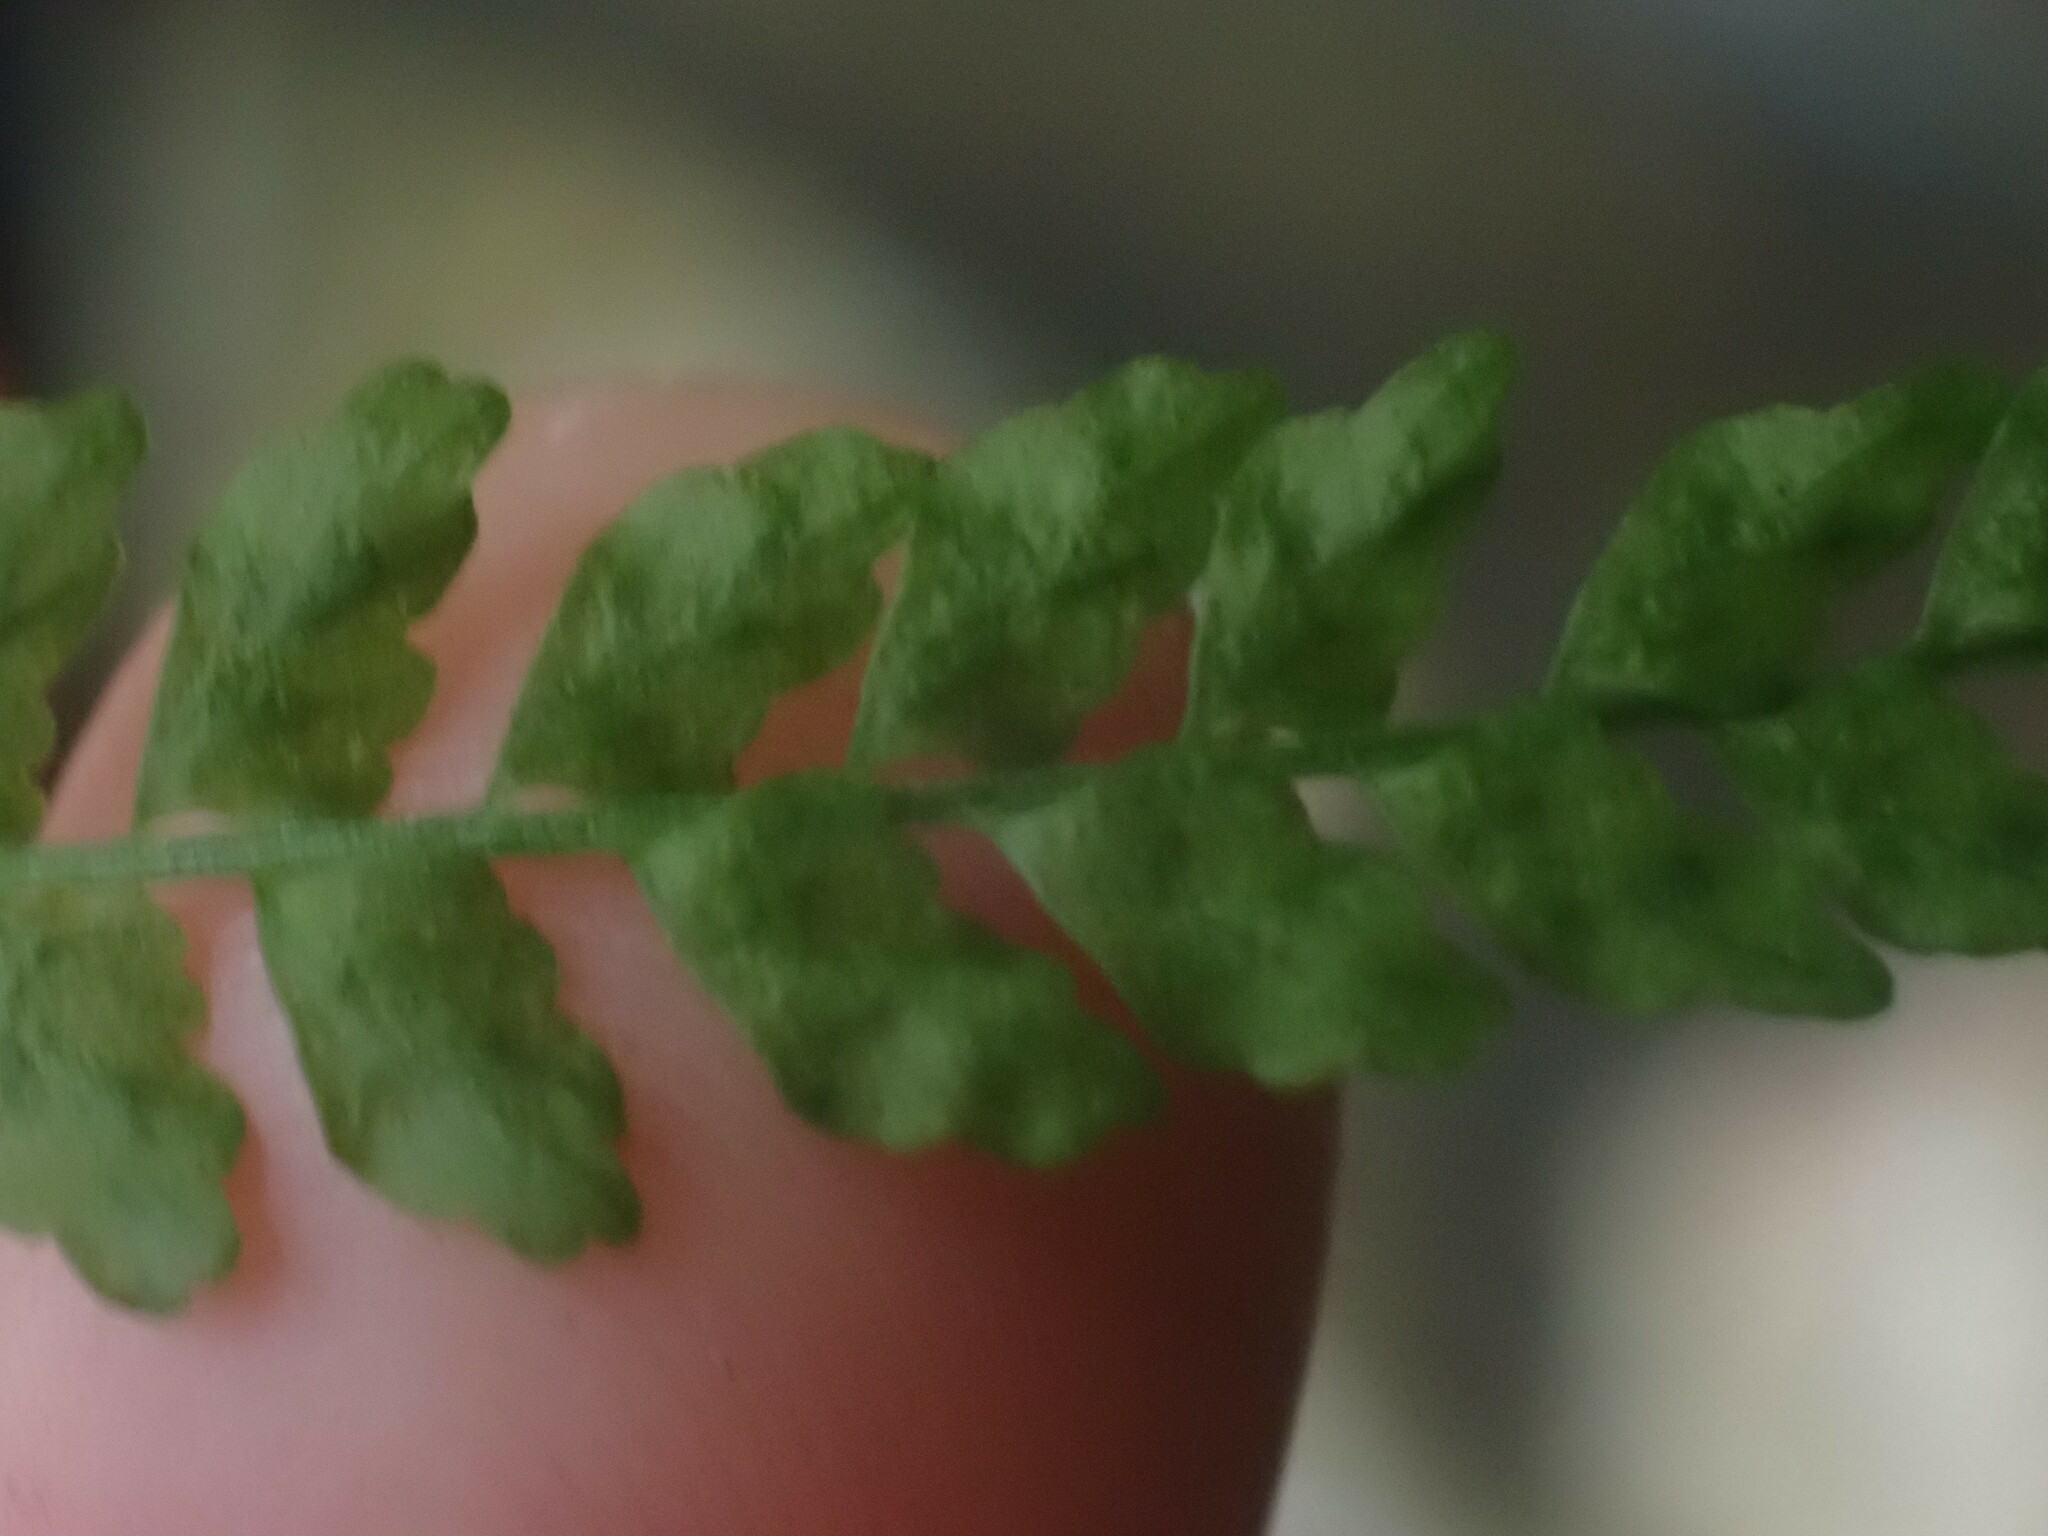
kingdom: Plantae
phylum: Tracheophyta
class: Polypodiopsida
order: Polypodiales
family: Aspleniaceae
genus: Asplenium
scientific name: Asplenium viride
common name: Green spleenwort
